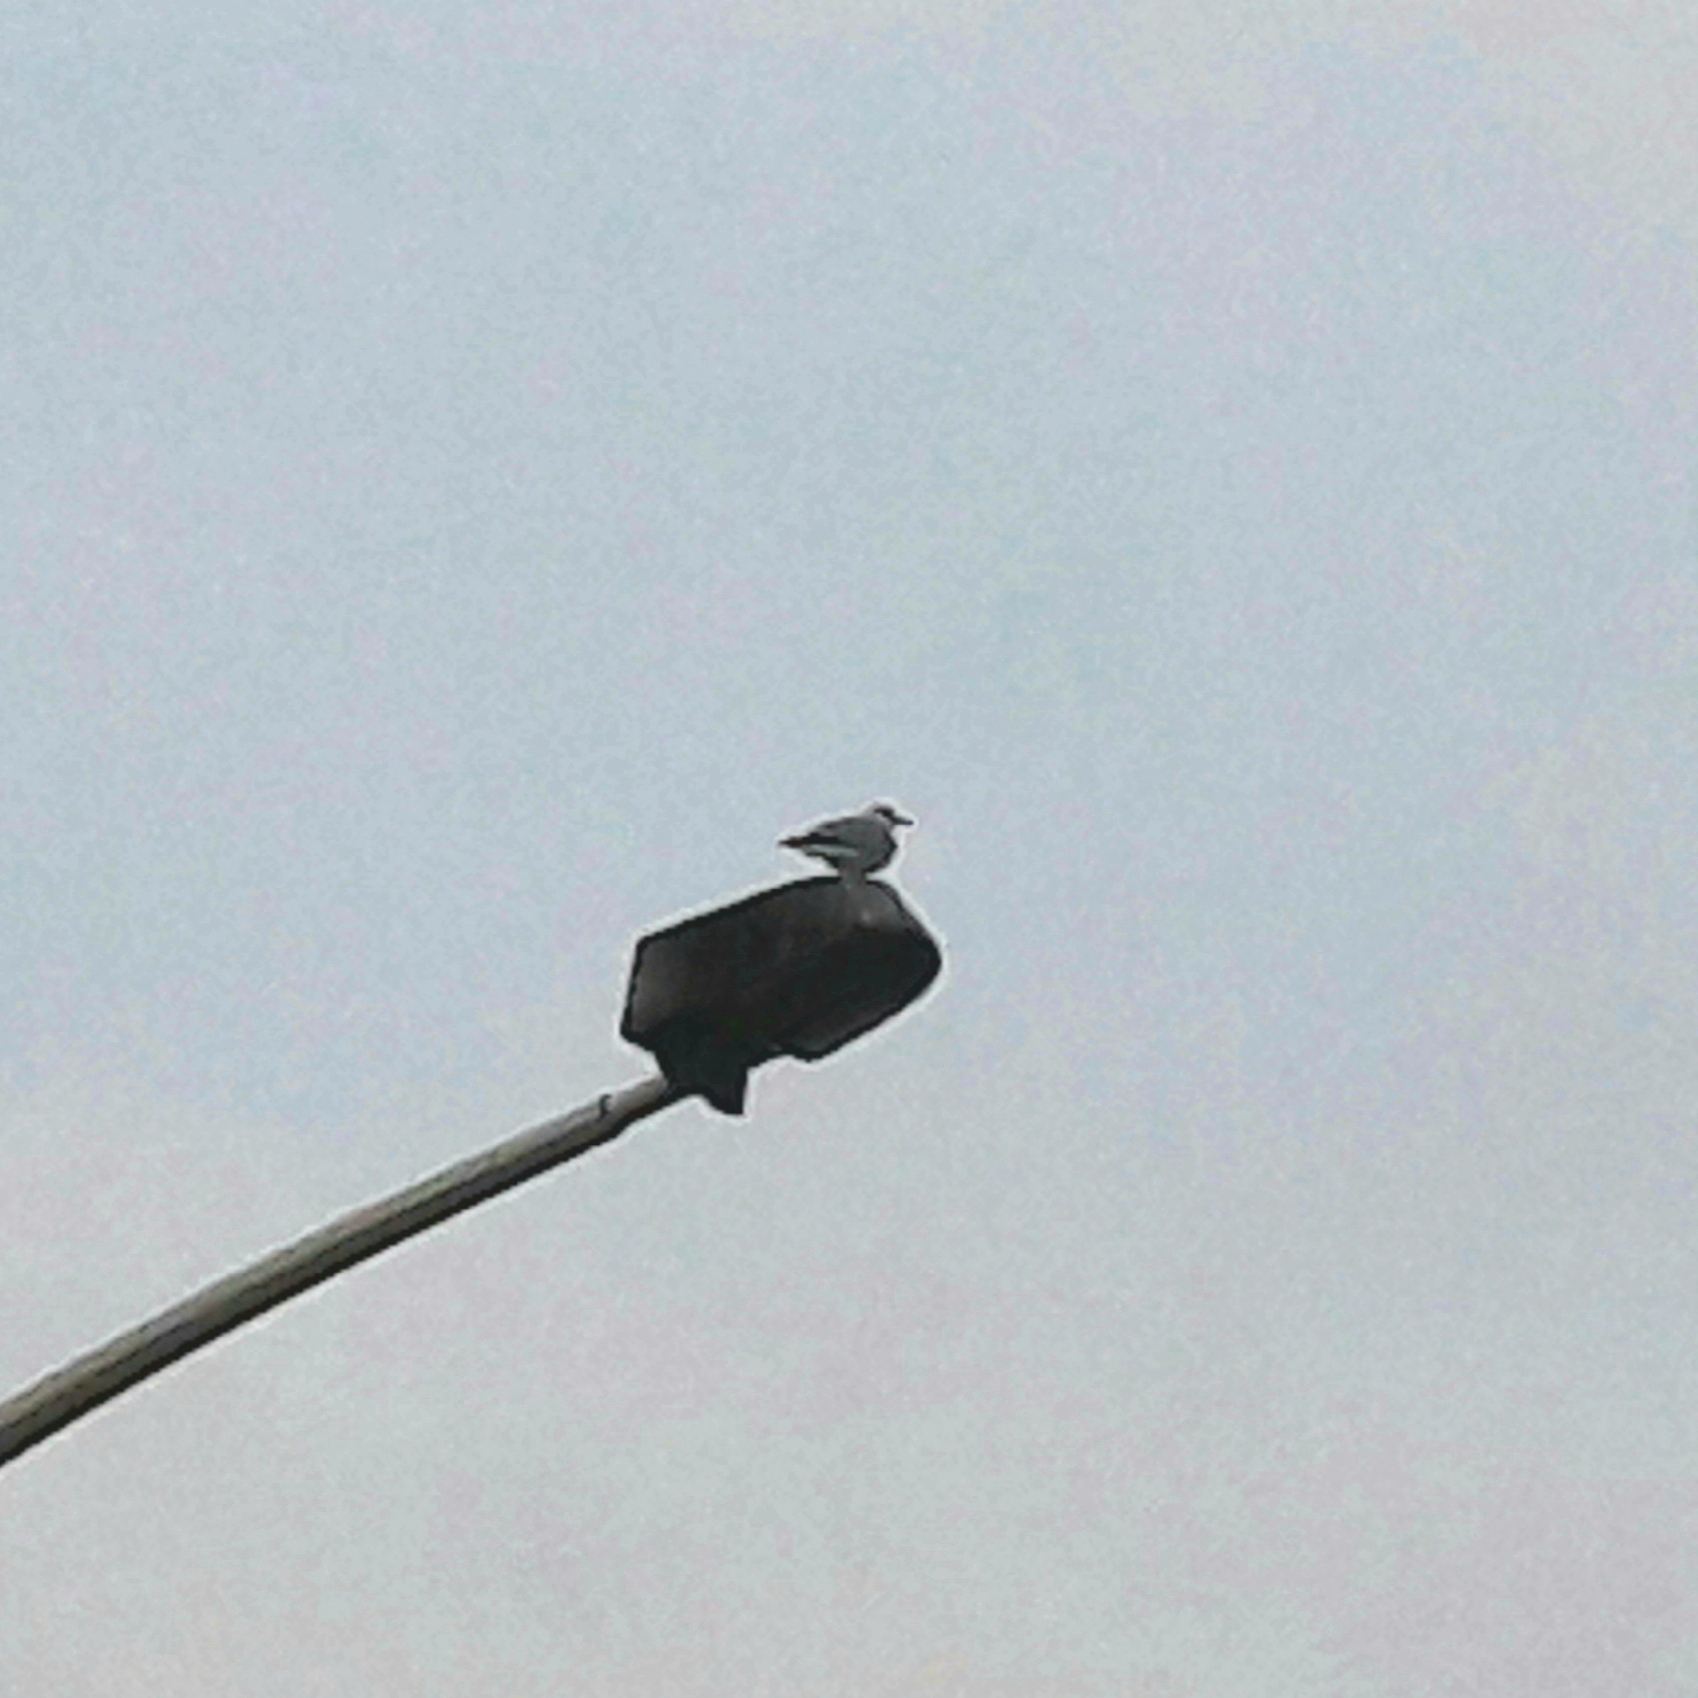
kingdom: Animalia
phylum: Chordata
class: Aves
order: Charadriiformes
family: Laridae
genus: Chroicocephalus
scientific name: Chroicocephalus ridibundus
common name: Black-headed gull
